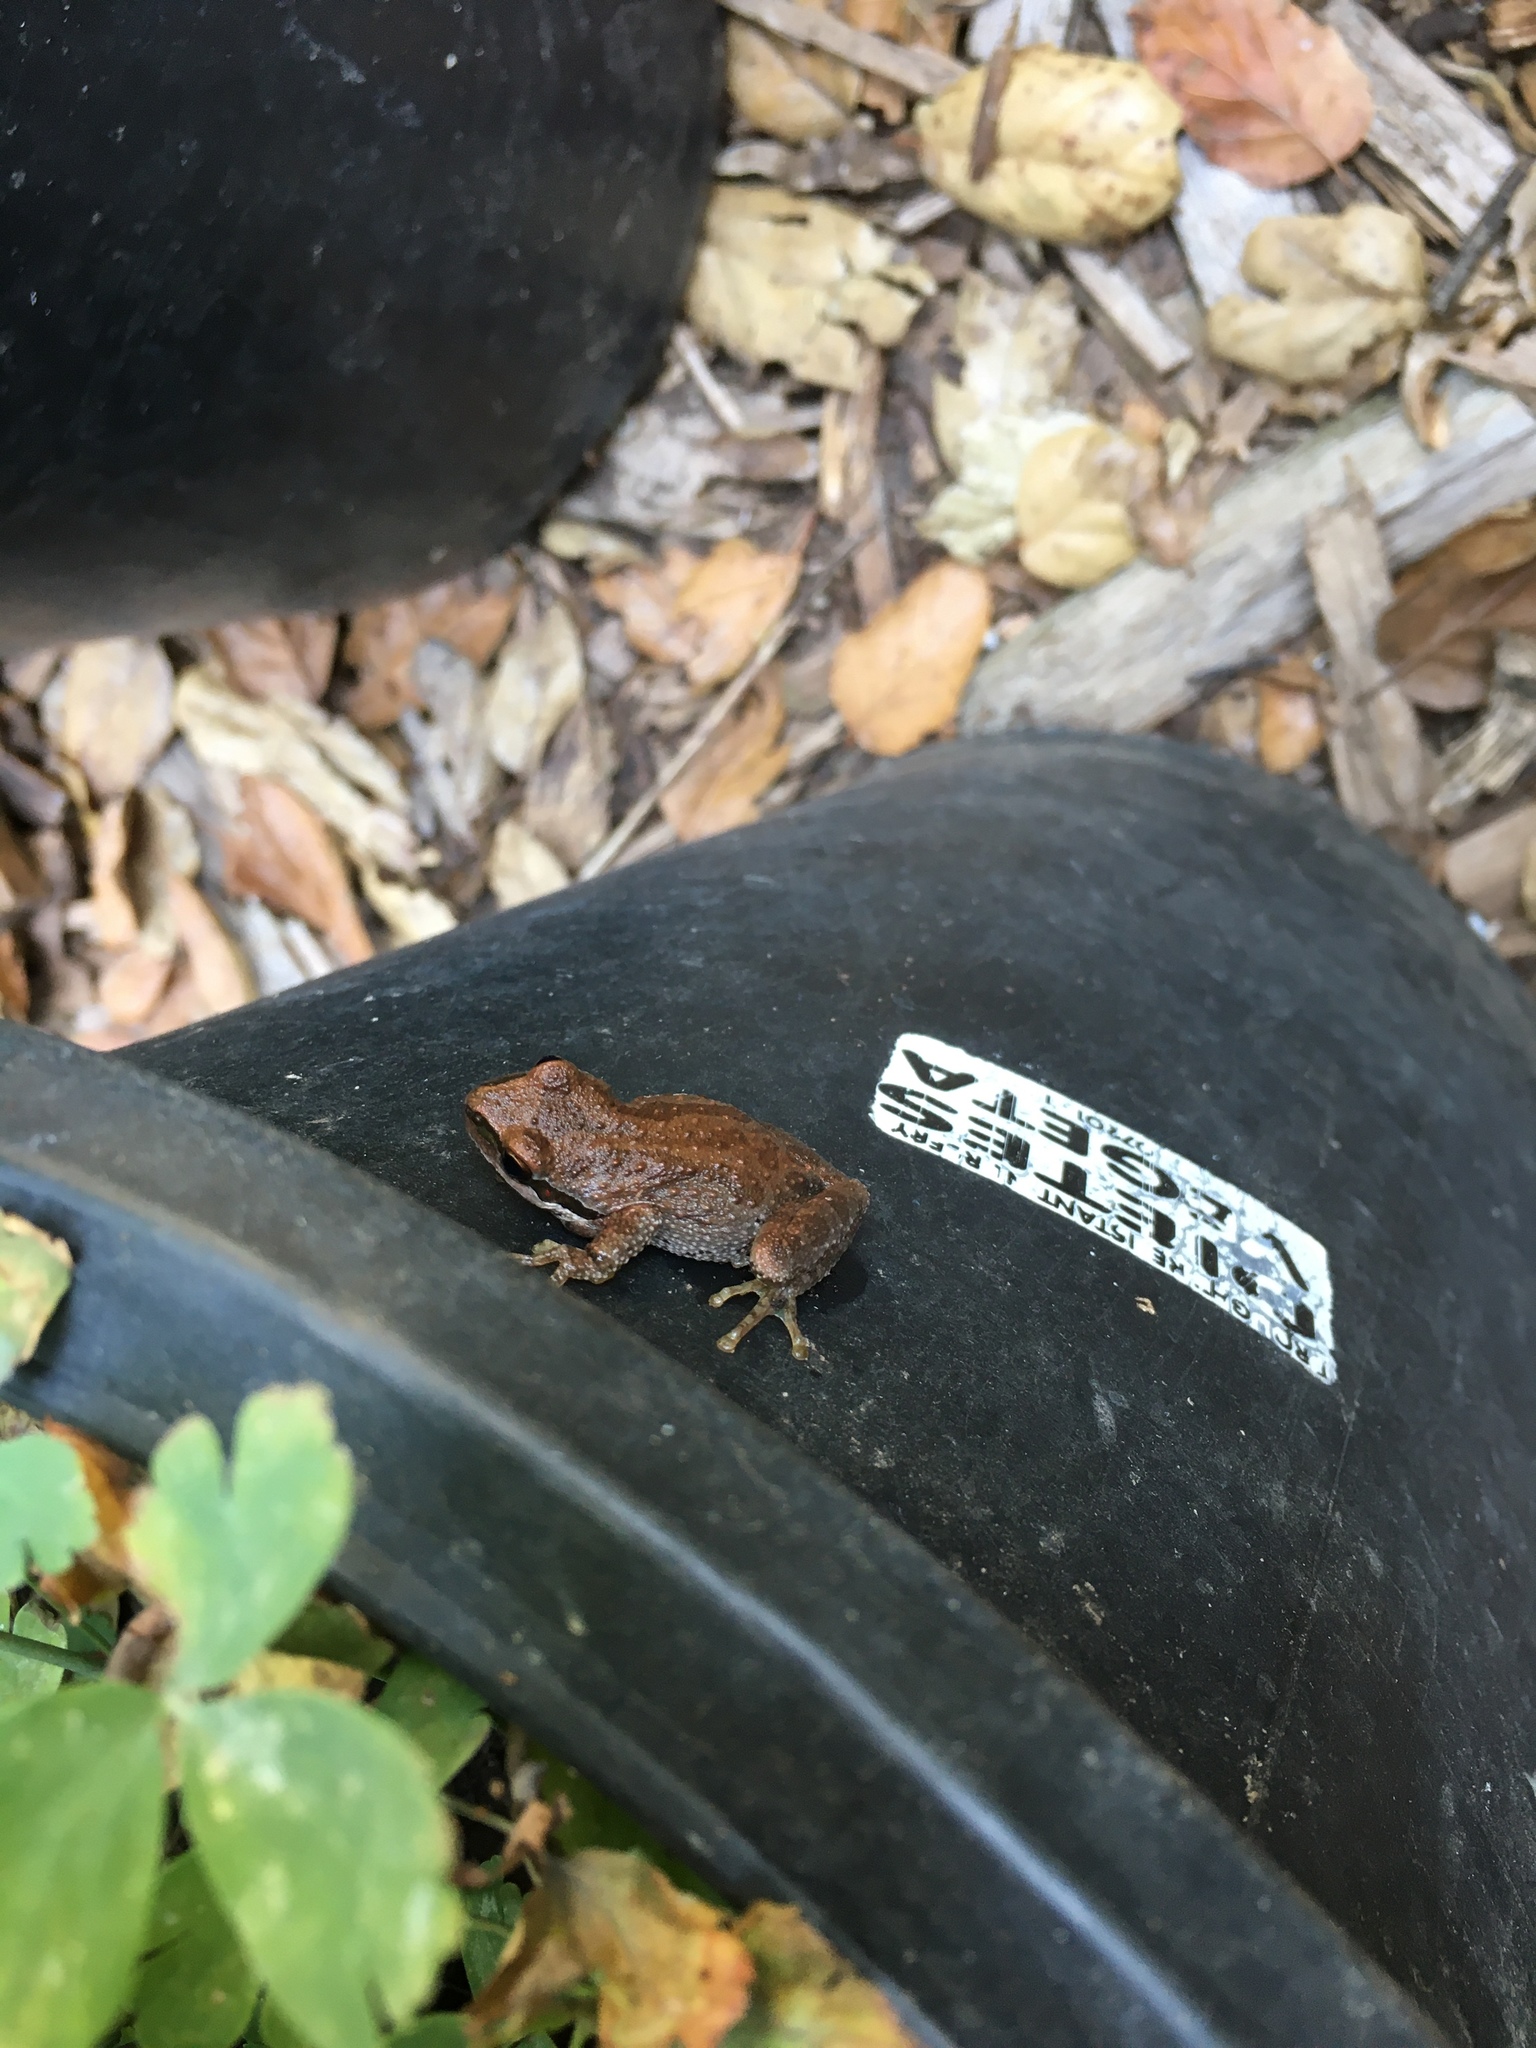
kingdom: Animalia
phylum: Chordata
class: Amphibia
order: Anura
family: Hylidae
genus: Pseudacris
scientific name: Pseudacris regilla
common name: Pacific chorus frog
